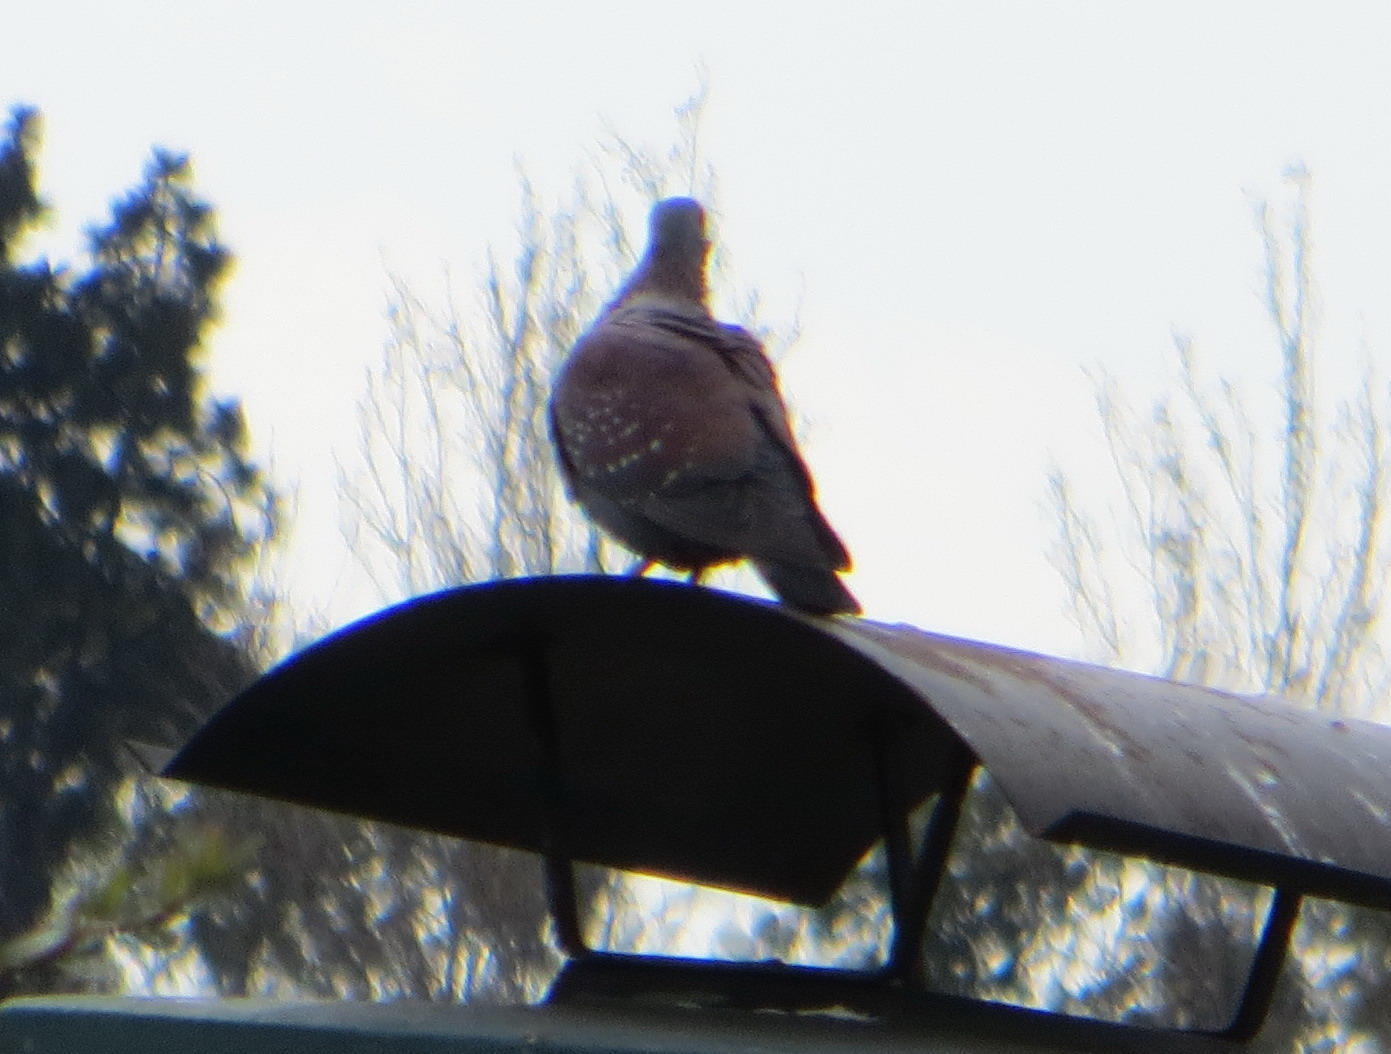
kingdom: Animalia
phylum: Chordata
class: Aves
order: Columbiformes
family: Columbidae
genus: Columba
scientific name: Columba guinea
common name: Speckled pigeon
